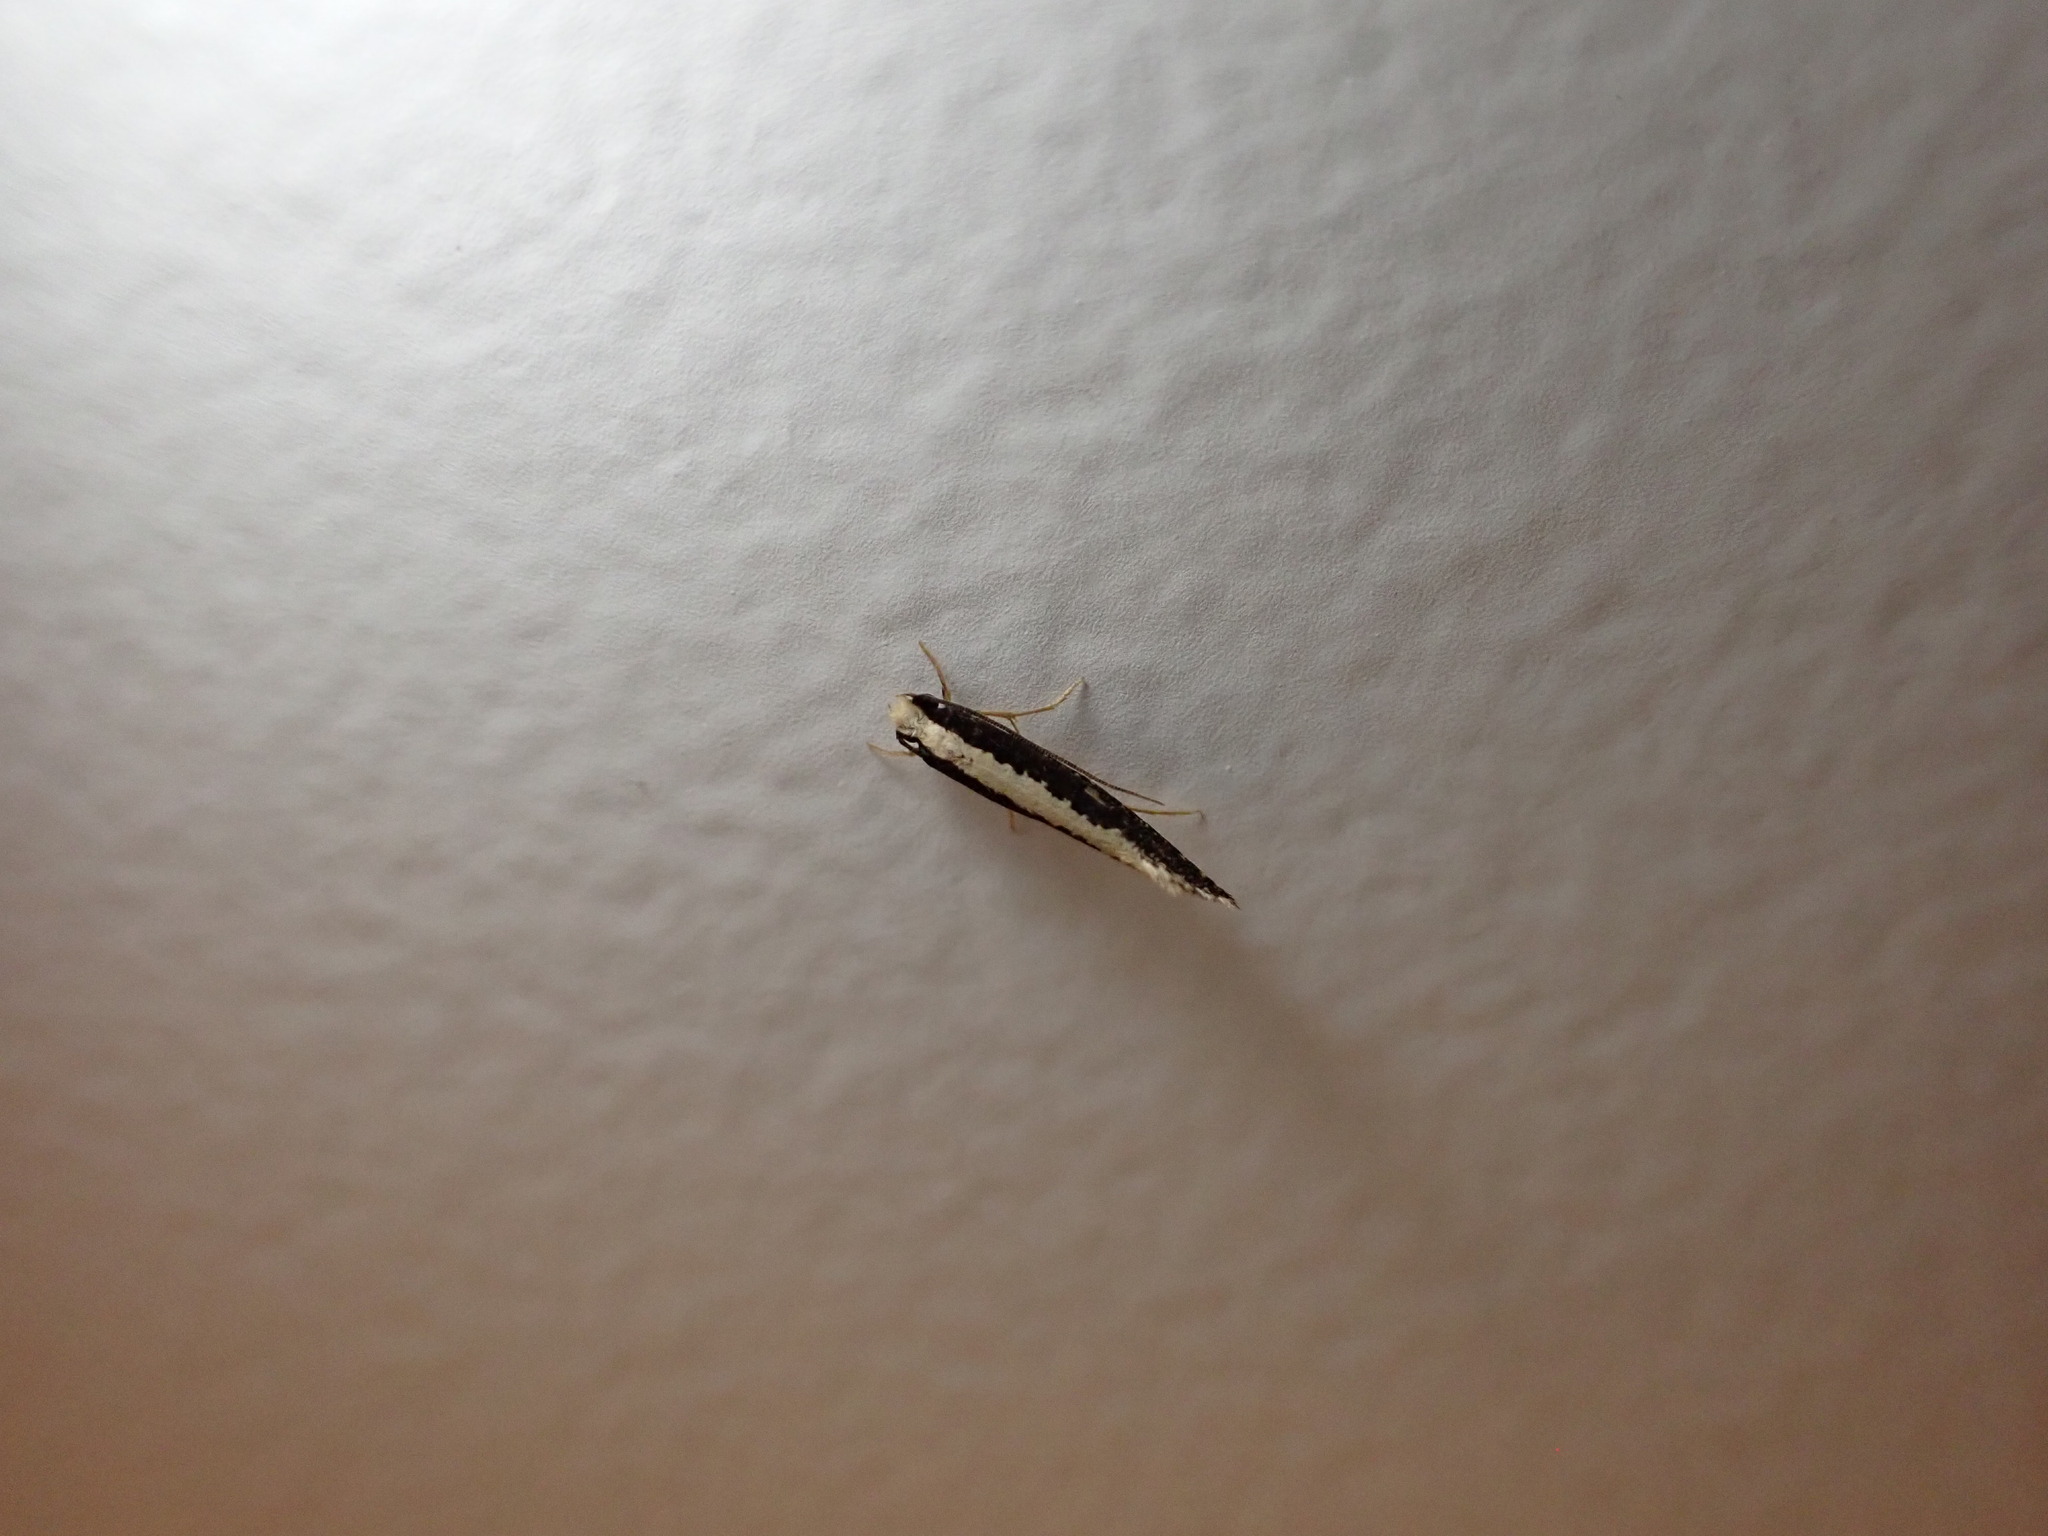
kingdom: Animalia
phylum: Arthropoda
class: Insecta
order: Lepidoptera
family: Tineidae
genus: Monopis
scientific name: Monopis ethelella
